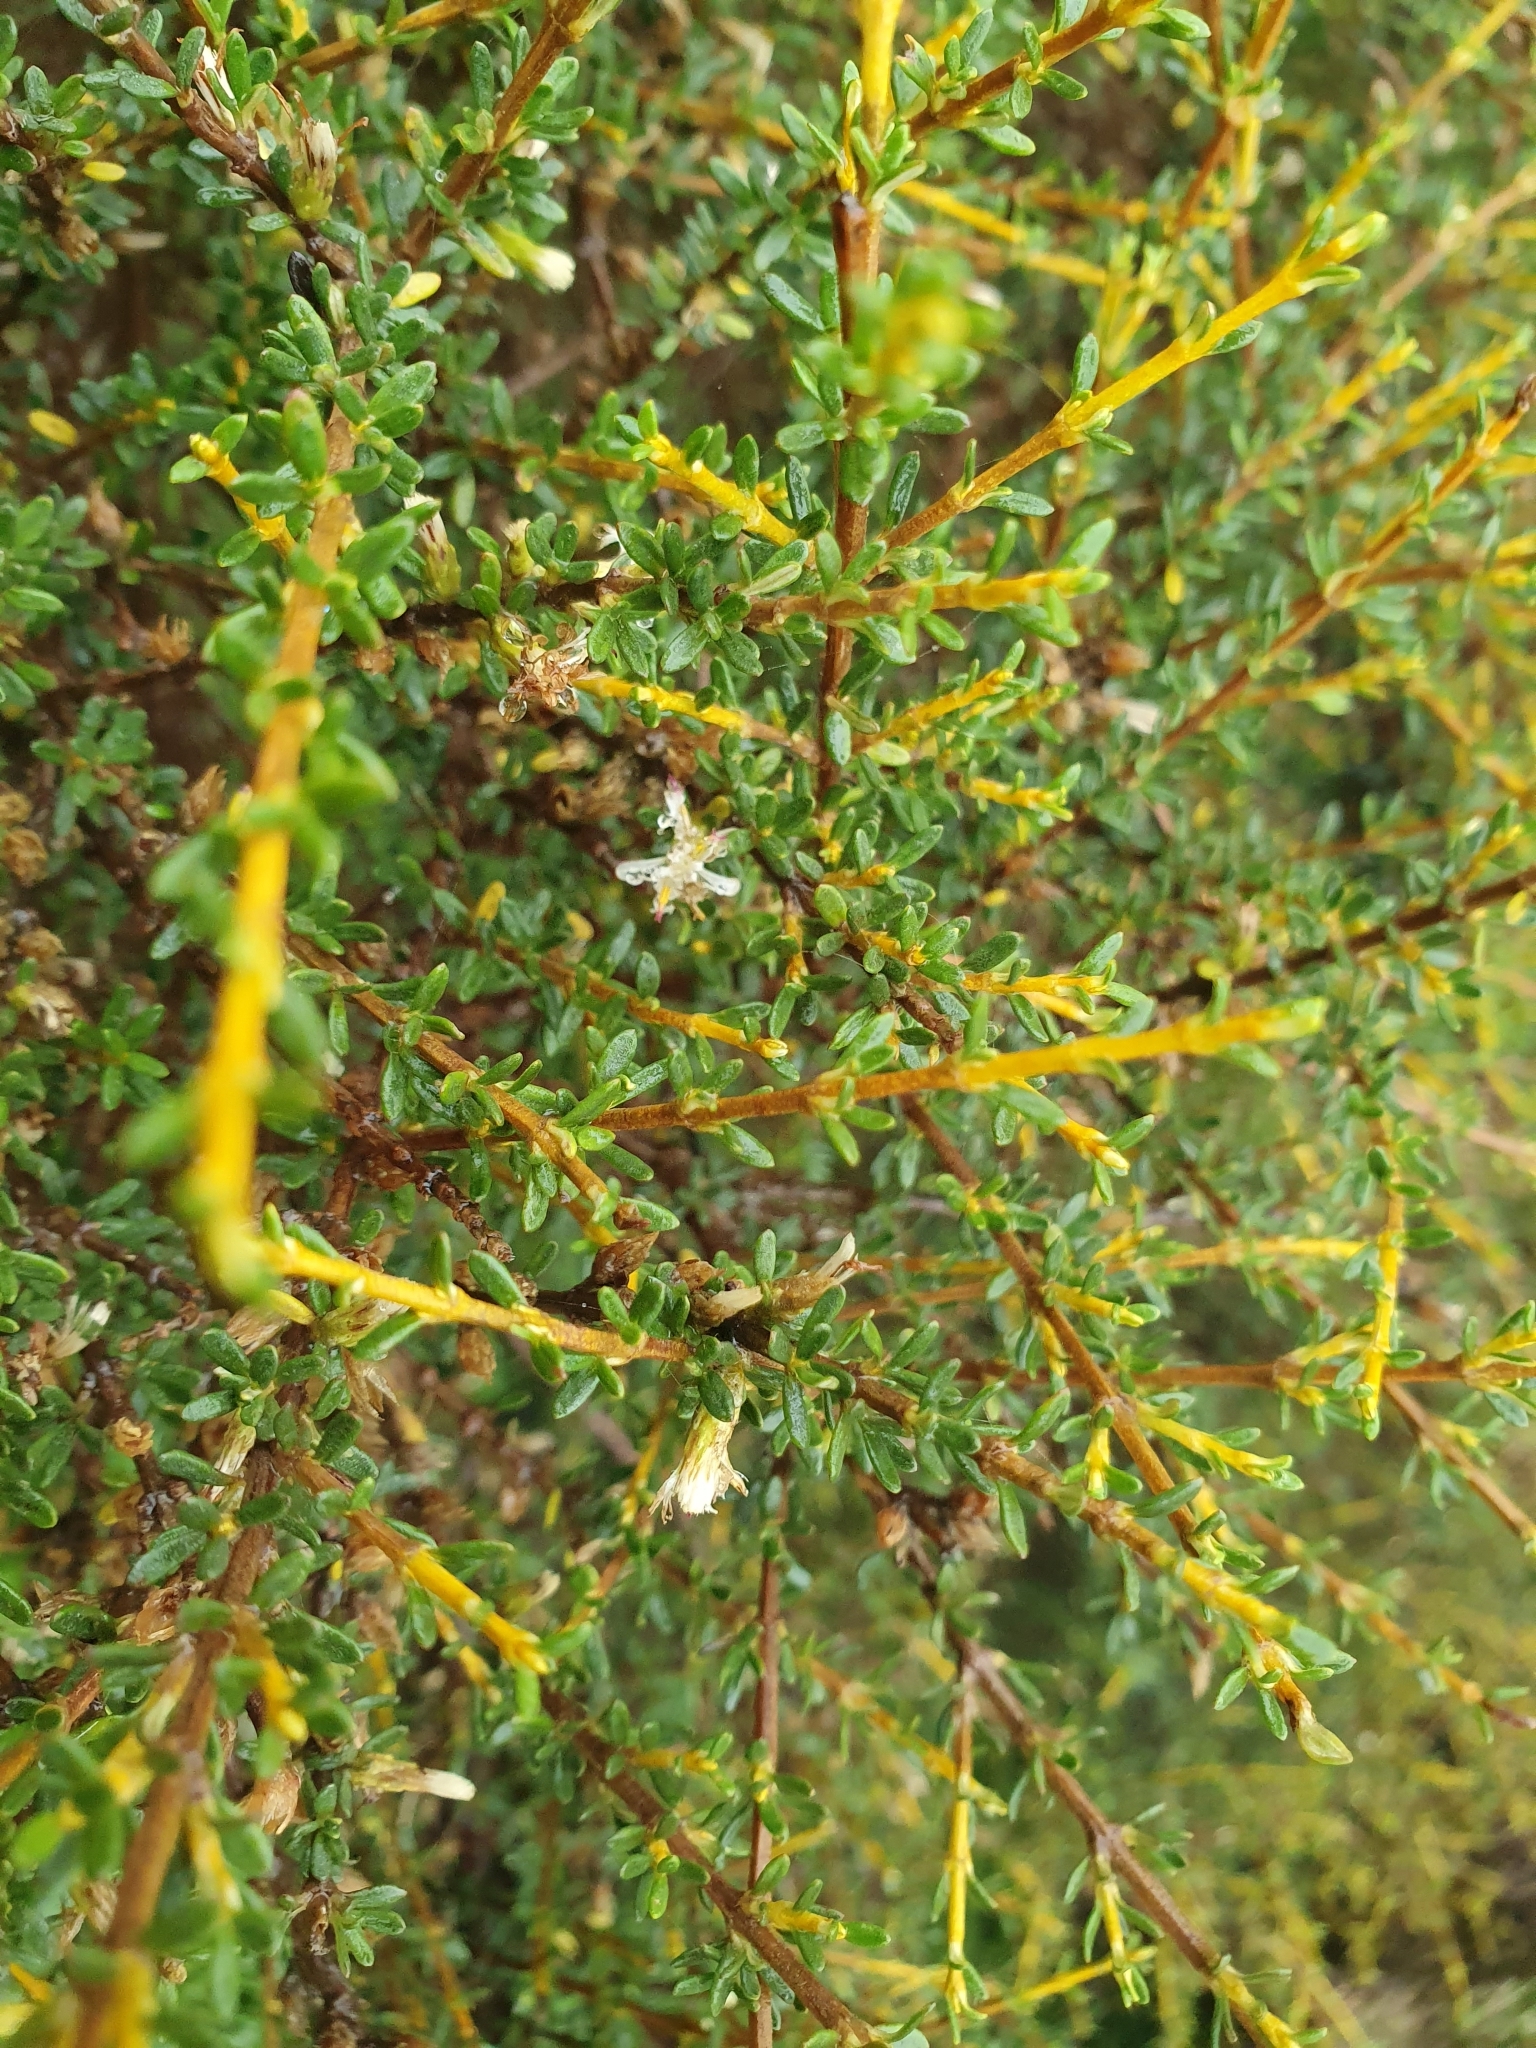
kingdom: Plantae
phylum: Tracheophyta
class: Magnoliopsida
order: Asterales
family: Asteraceae
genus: Olearia
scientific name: Olearia solandri
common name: Coastal daisybush
